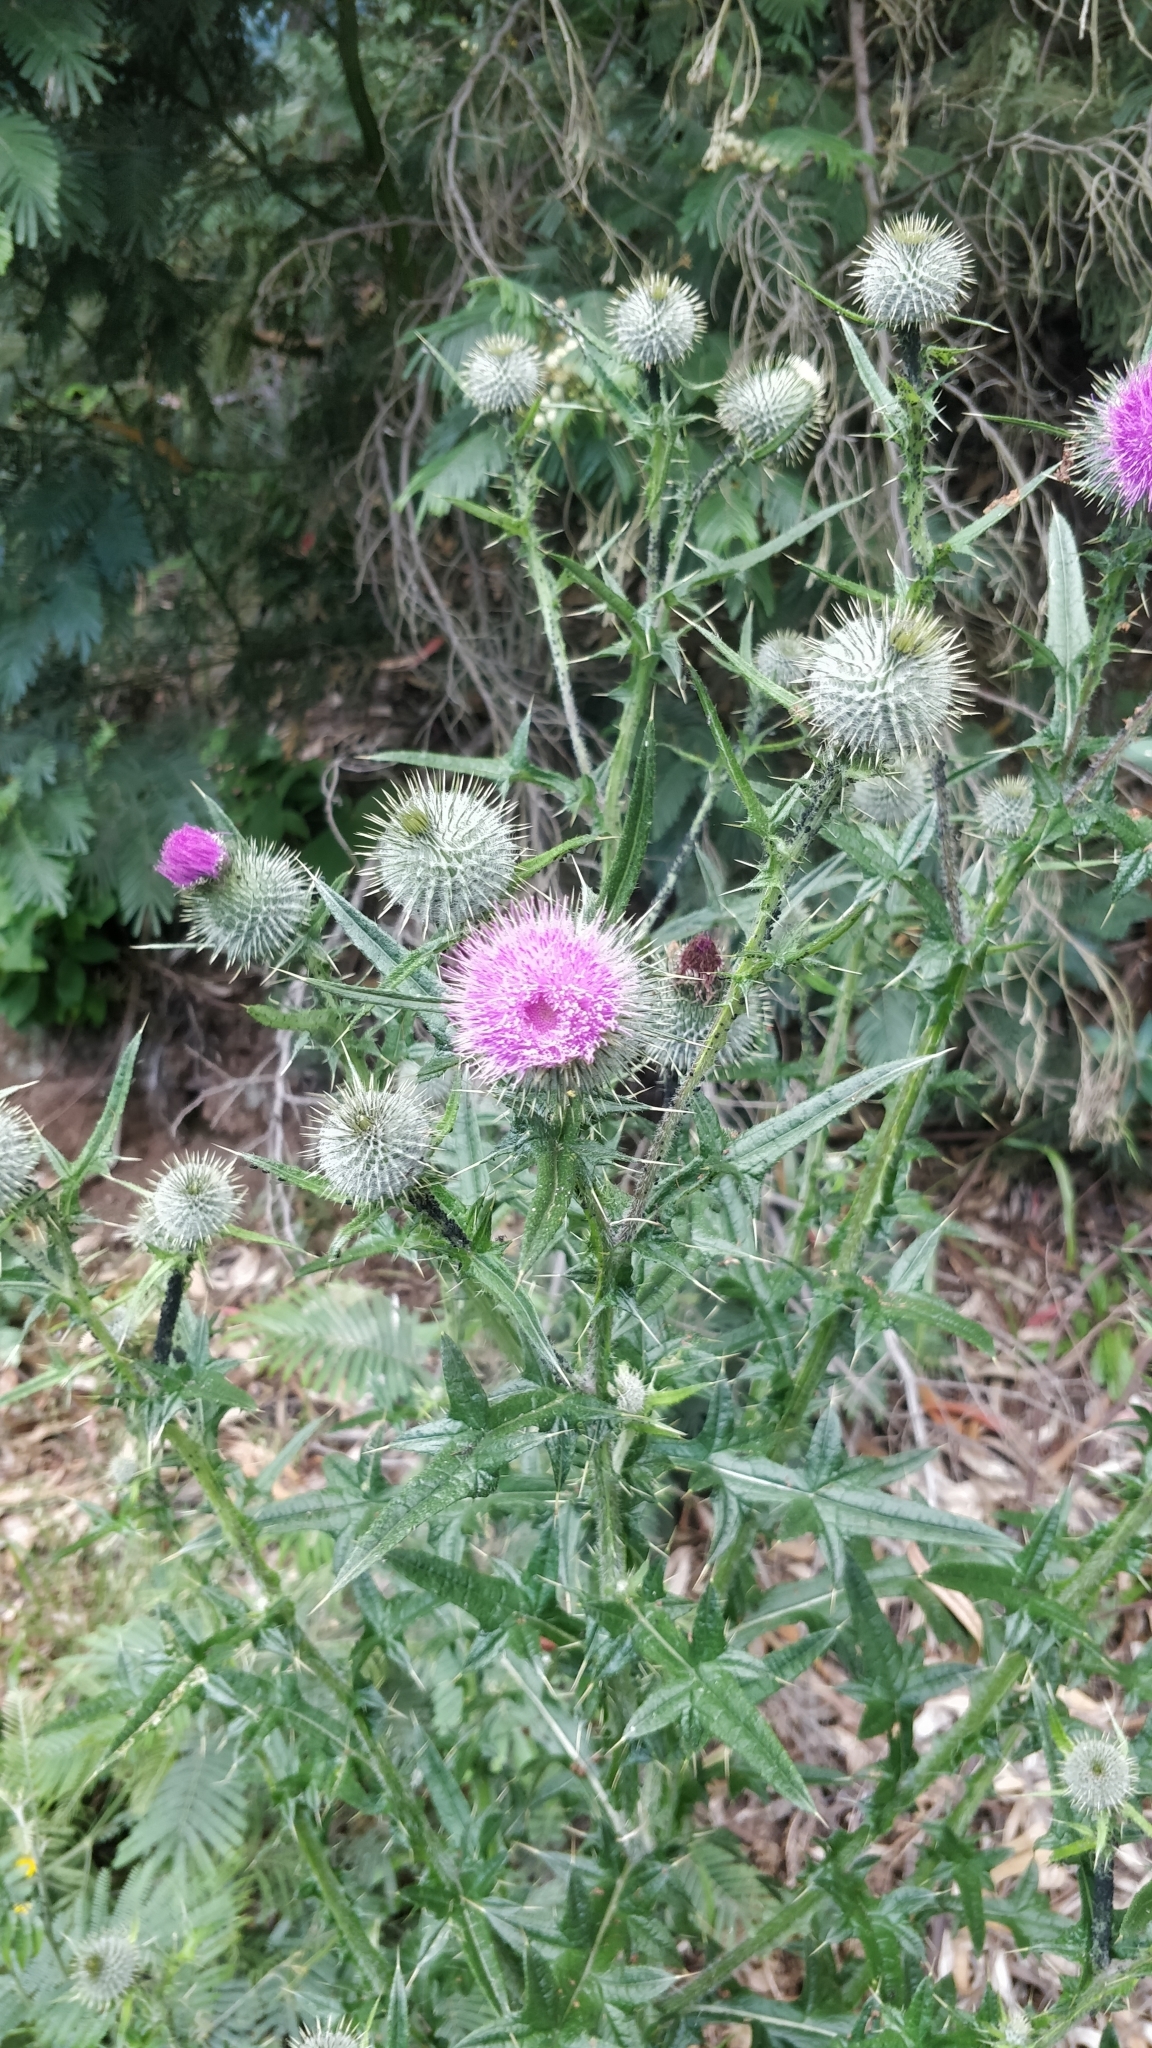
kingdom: Plantae
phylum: Tracheophyta
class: Magnoliopsida
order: Asterales
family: Asteraceae
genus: Cirsium
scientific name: Cirsium vulgare
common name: Bull thistle
